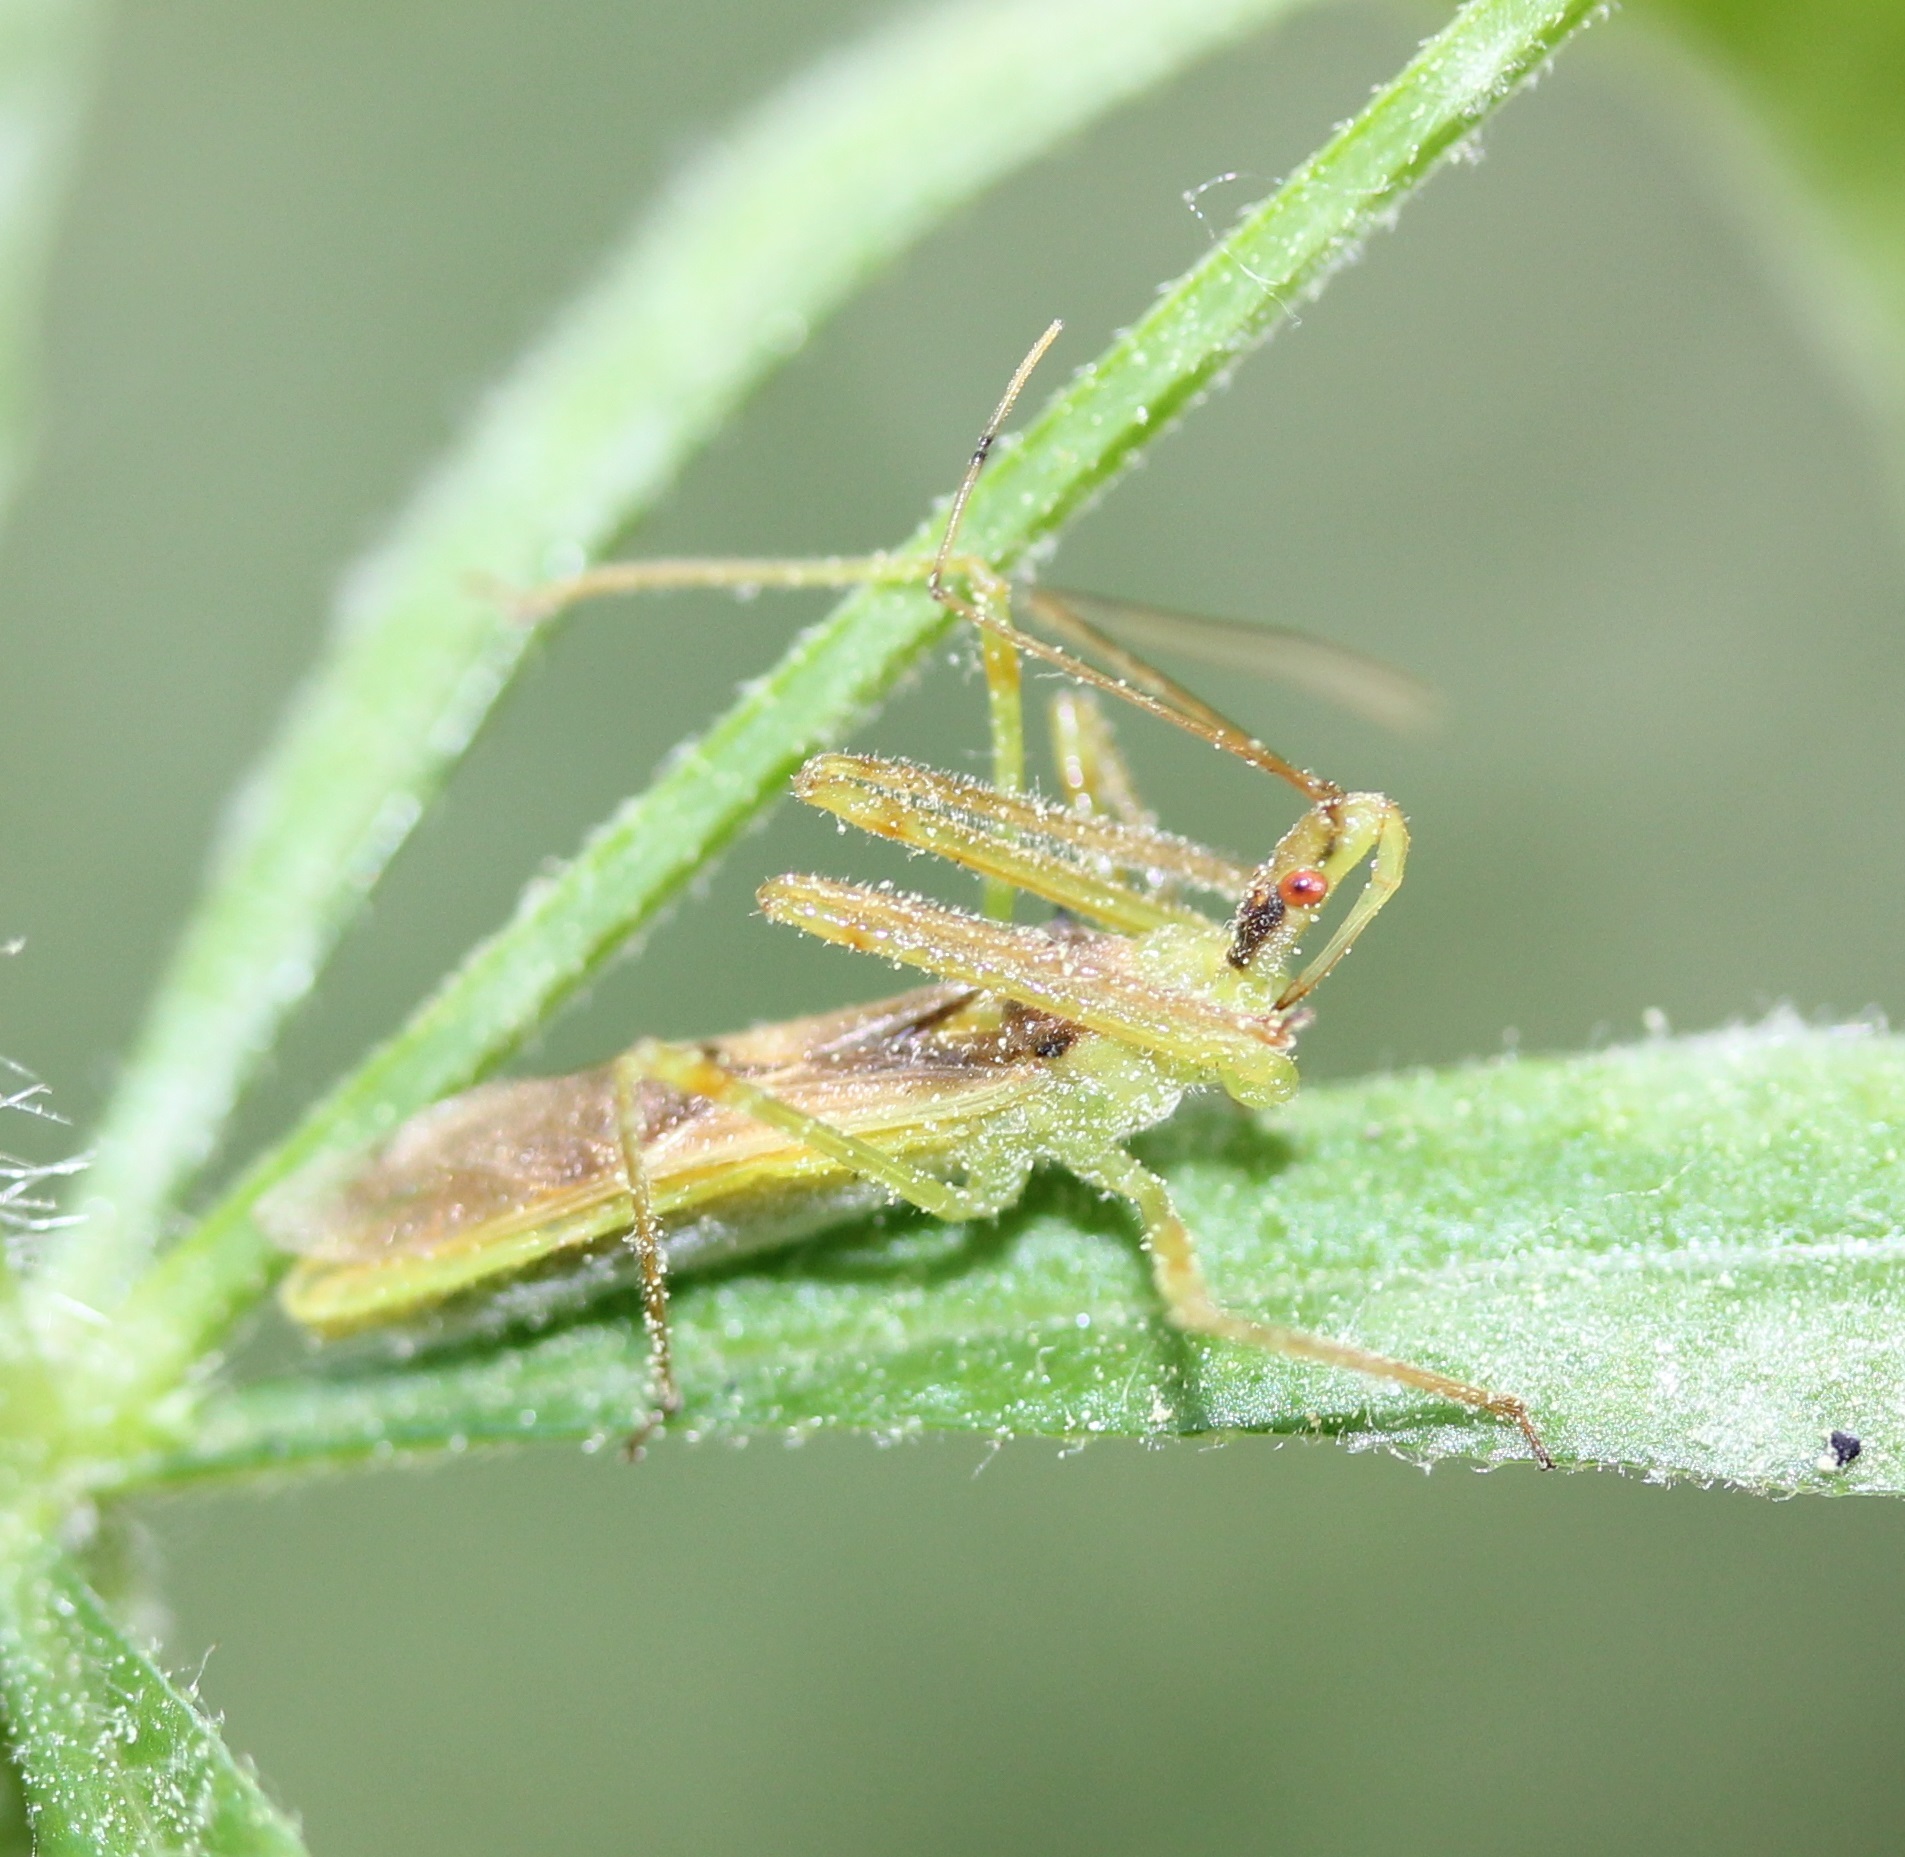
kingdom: Animalia
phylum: Arthropoda
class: Insecta
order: Hemiptera
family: Reduviidae
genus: Zelus
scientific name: Zelus luridus
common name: Pale green assassin bug
